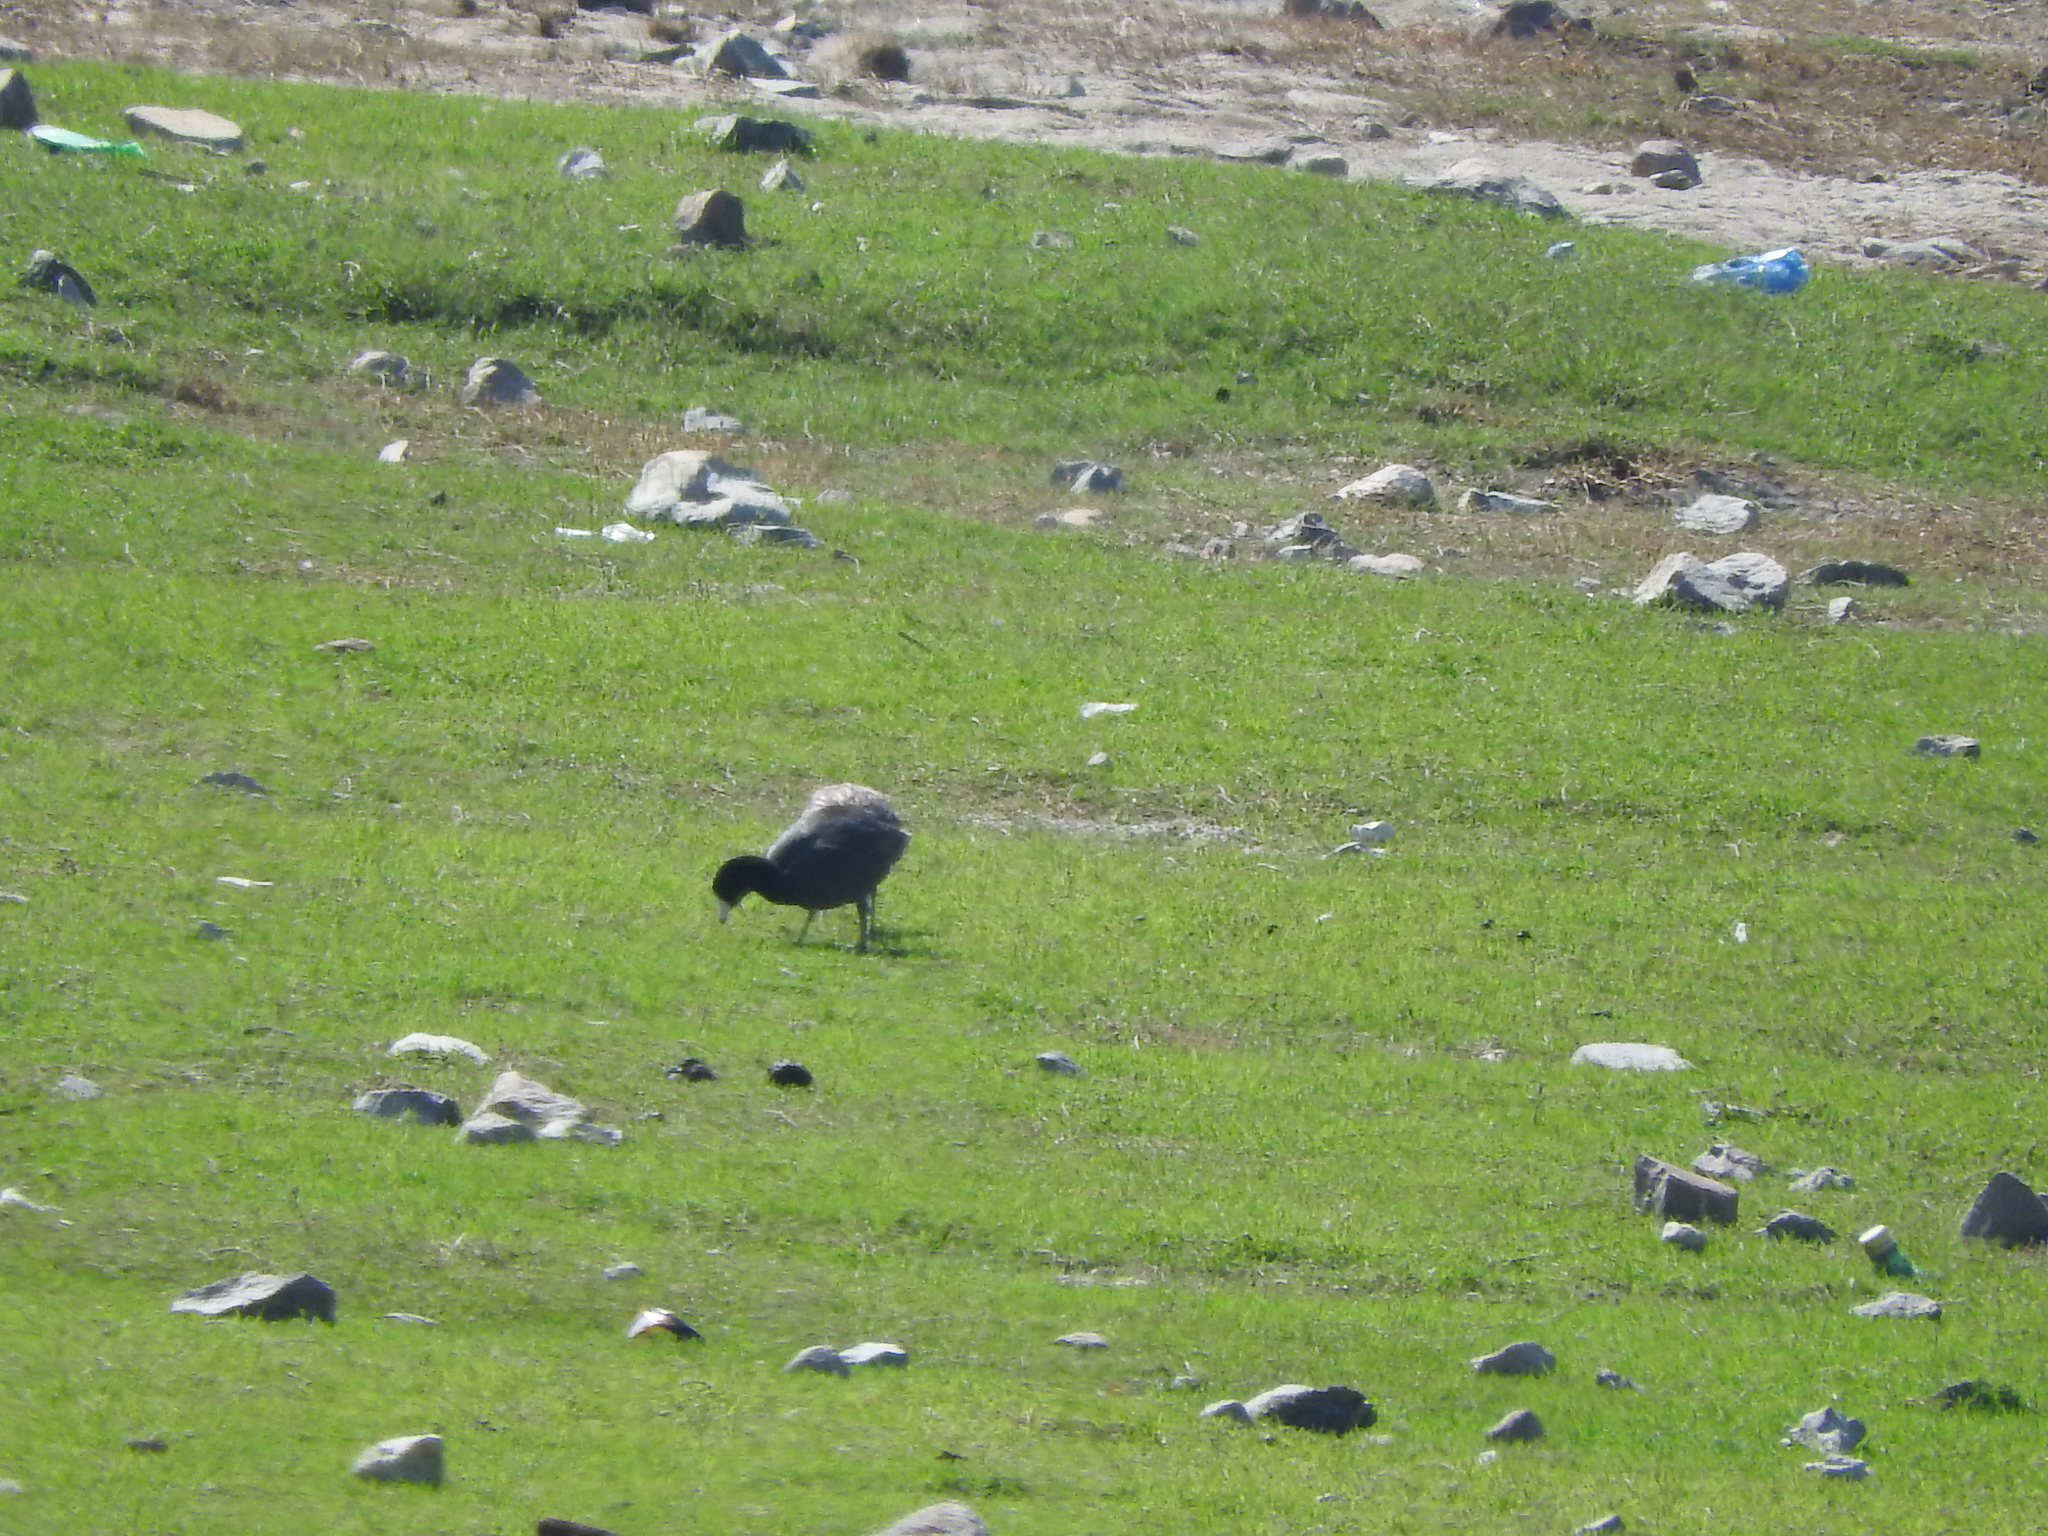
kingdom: Animalia
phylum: Chordata
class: Aves
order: Gruiformes
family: Rallidae
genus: Fulica
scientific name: Fulica americana
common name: American coot
